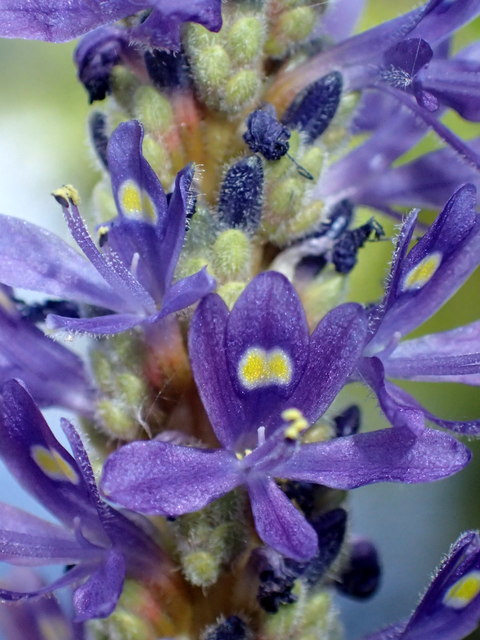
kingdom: Plantae
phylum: Tracheophyta
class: Liliopsida
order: Commelinales
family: Pontederiaceae
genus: Pontederia
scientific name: Pontederia cordata
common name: Pickerelweed
